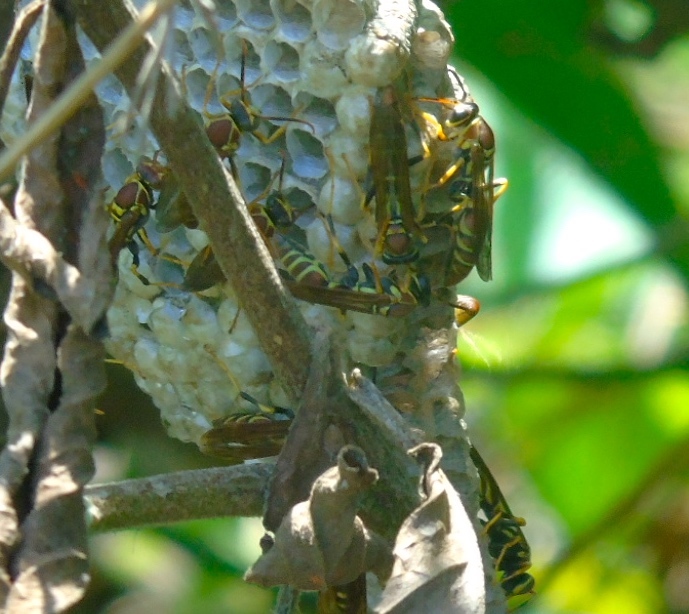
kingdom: Animalia
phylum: Arthropoda
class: Insecta
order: Hymenoptera
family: Eumenidae
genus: Polistes
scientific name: Polistes instabilis
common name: Unstable paper wasp
